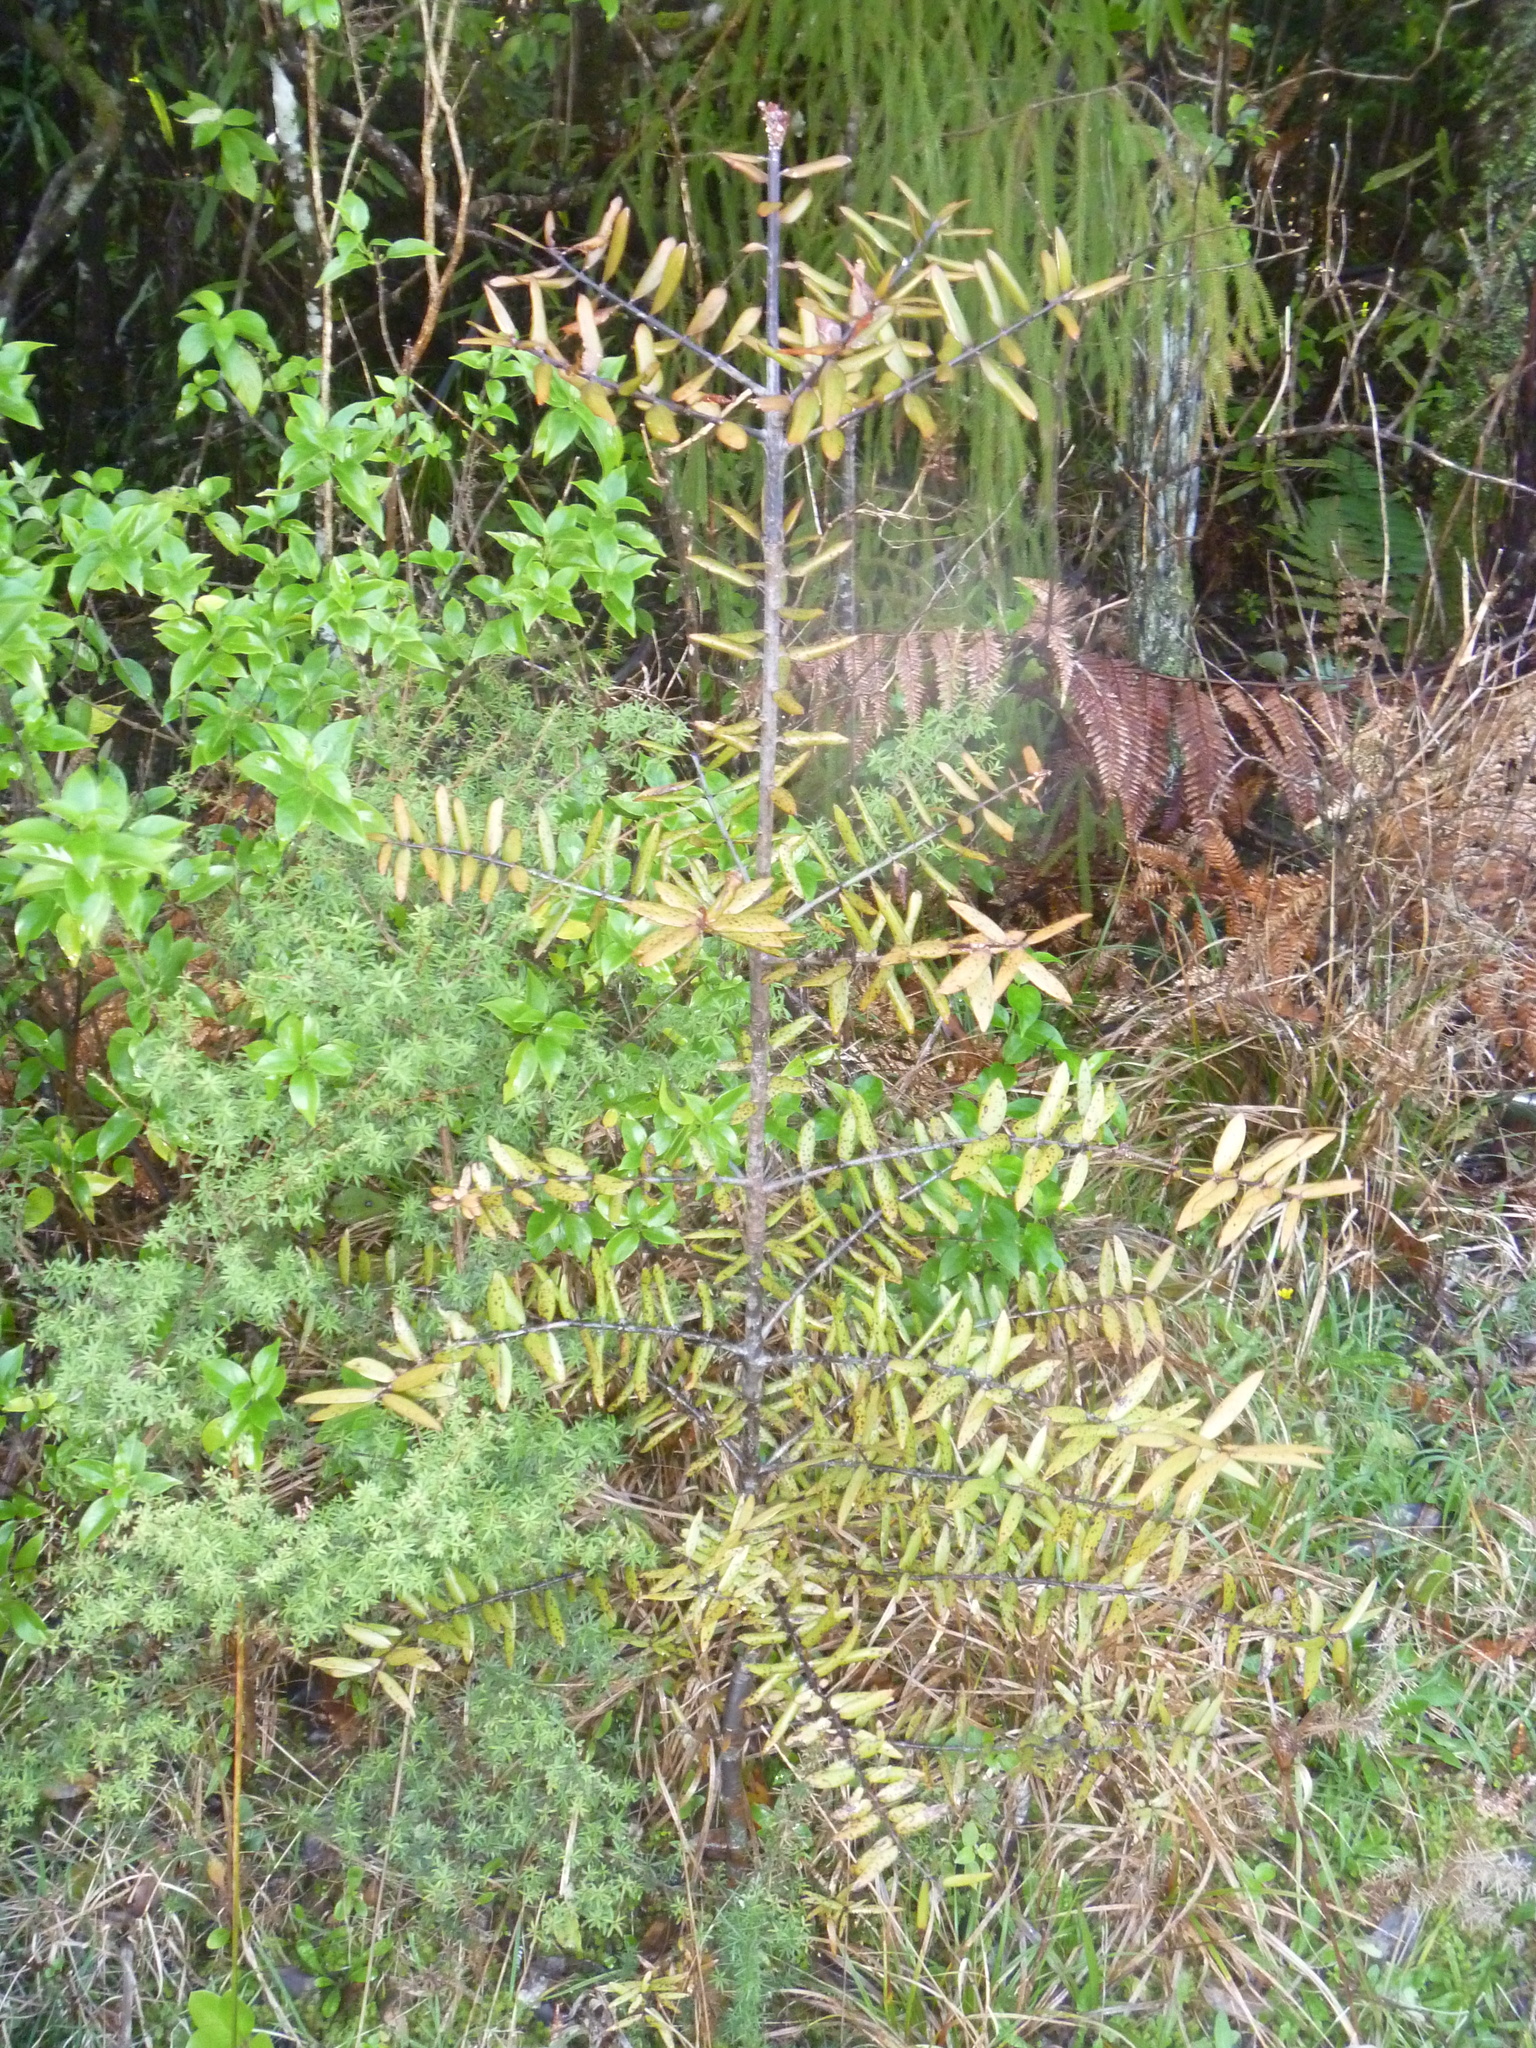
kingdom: Plantae
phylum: Tracheophyta
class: Pinopsida
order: Pinales
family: Araucariaceae
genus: Agathis
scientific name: Agathis australis
